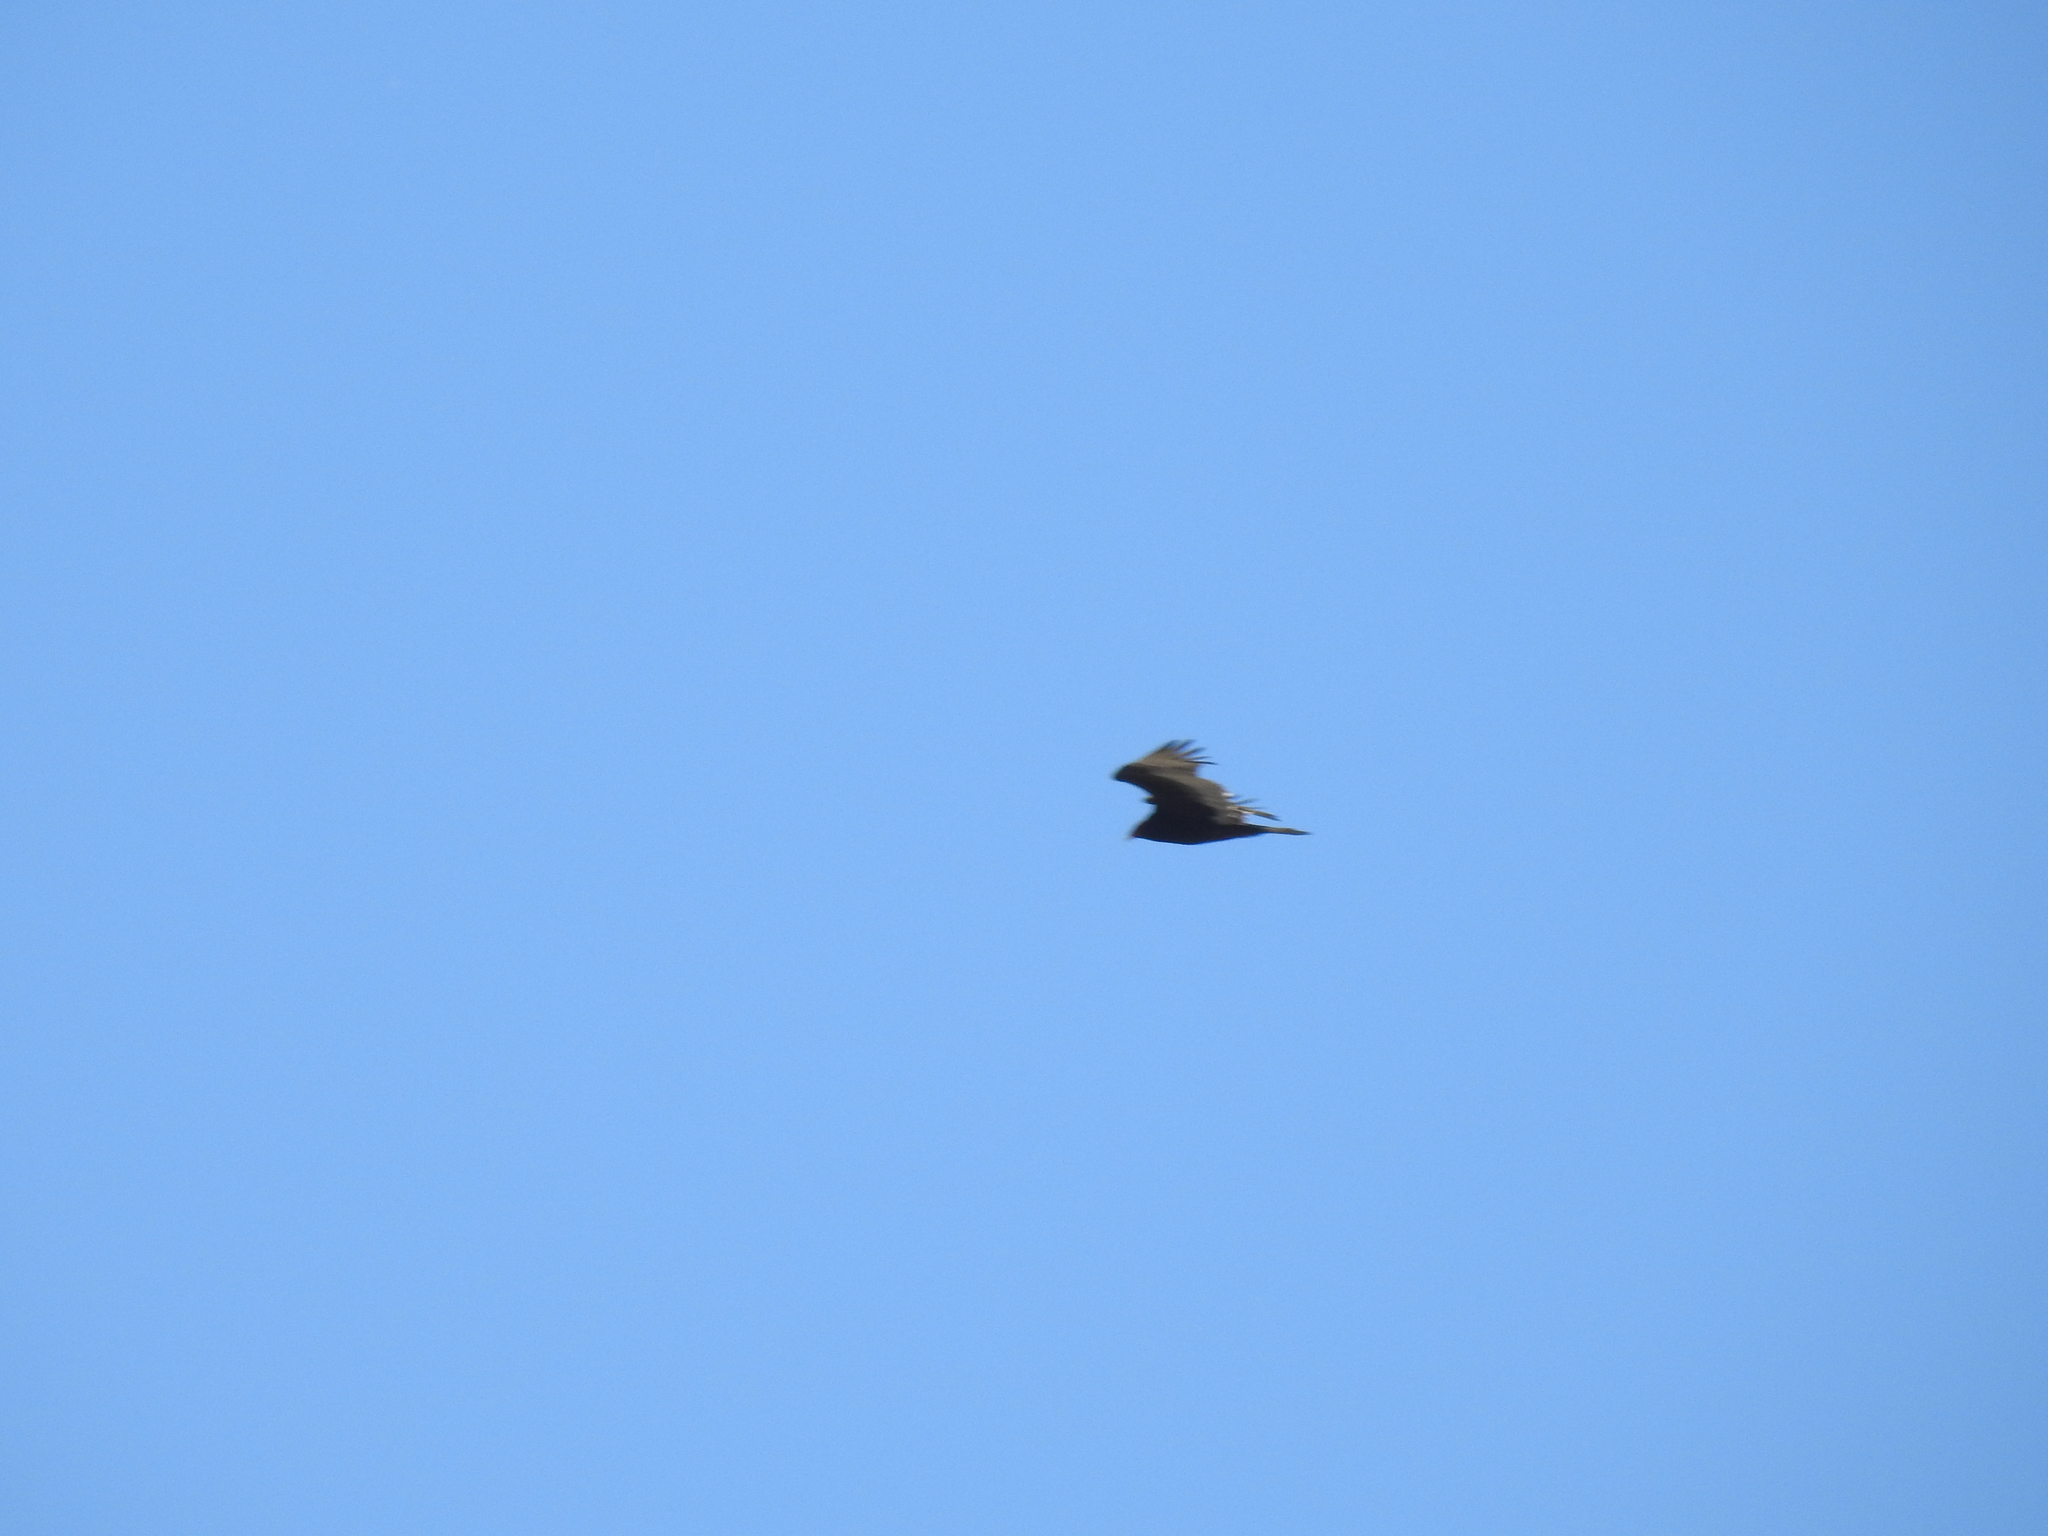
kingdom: Animalia
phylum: Chordata
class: Aves
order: Accipitriformes
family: Cathartidae
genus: Cathartes
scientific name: Cathartes aura
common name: Turkey vulture
